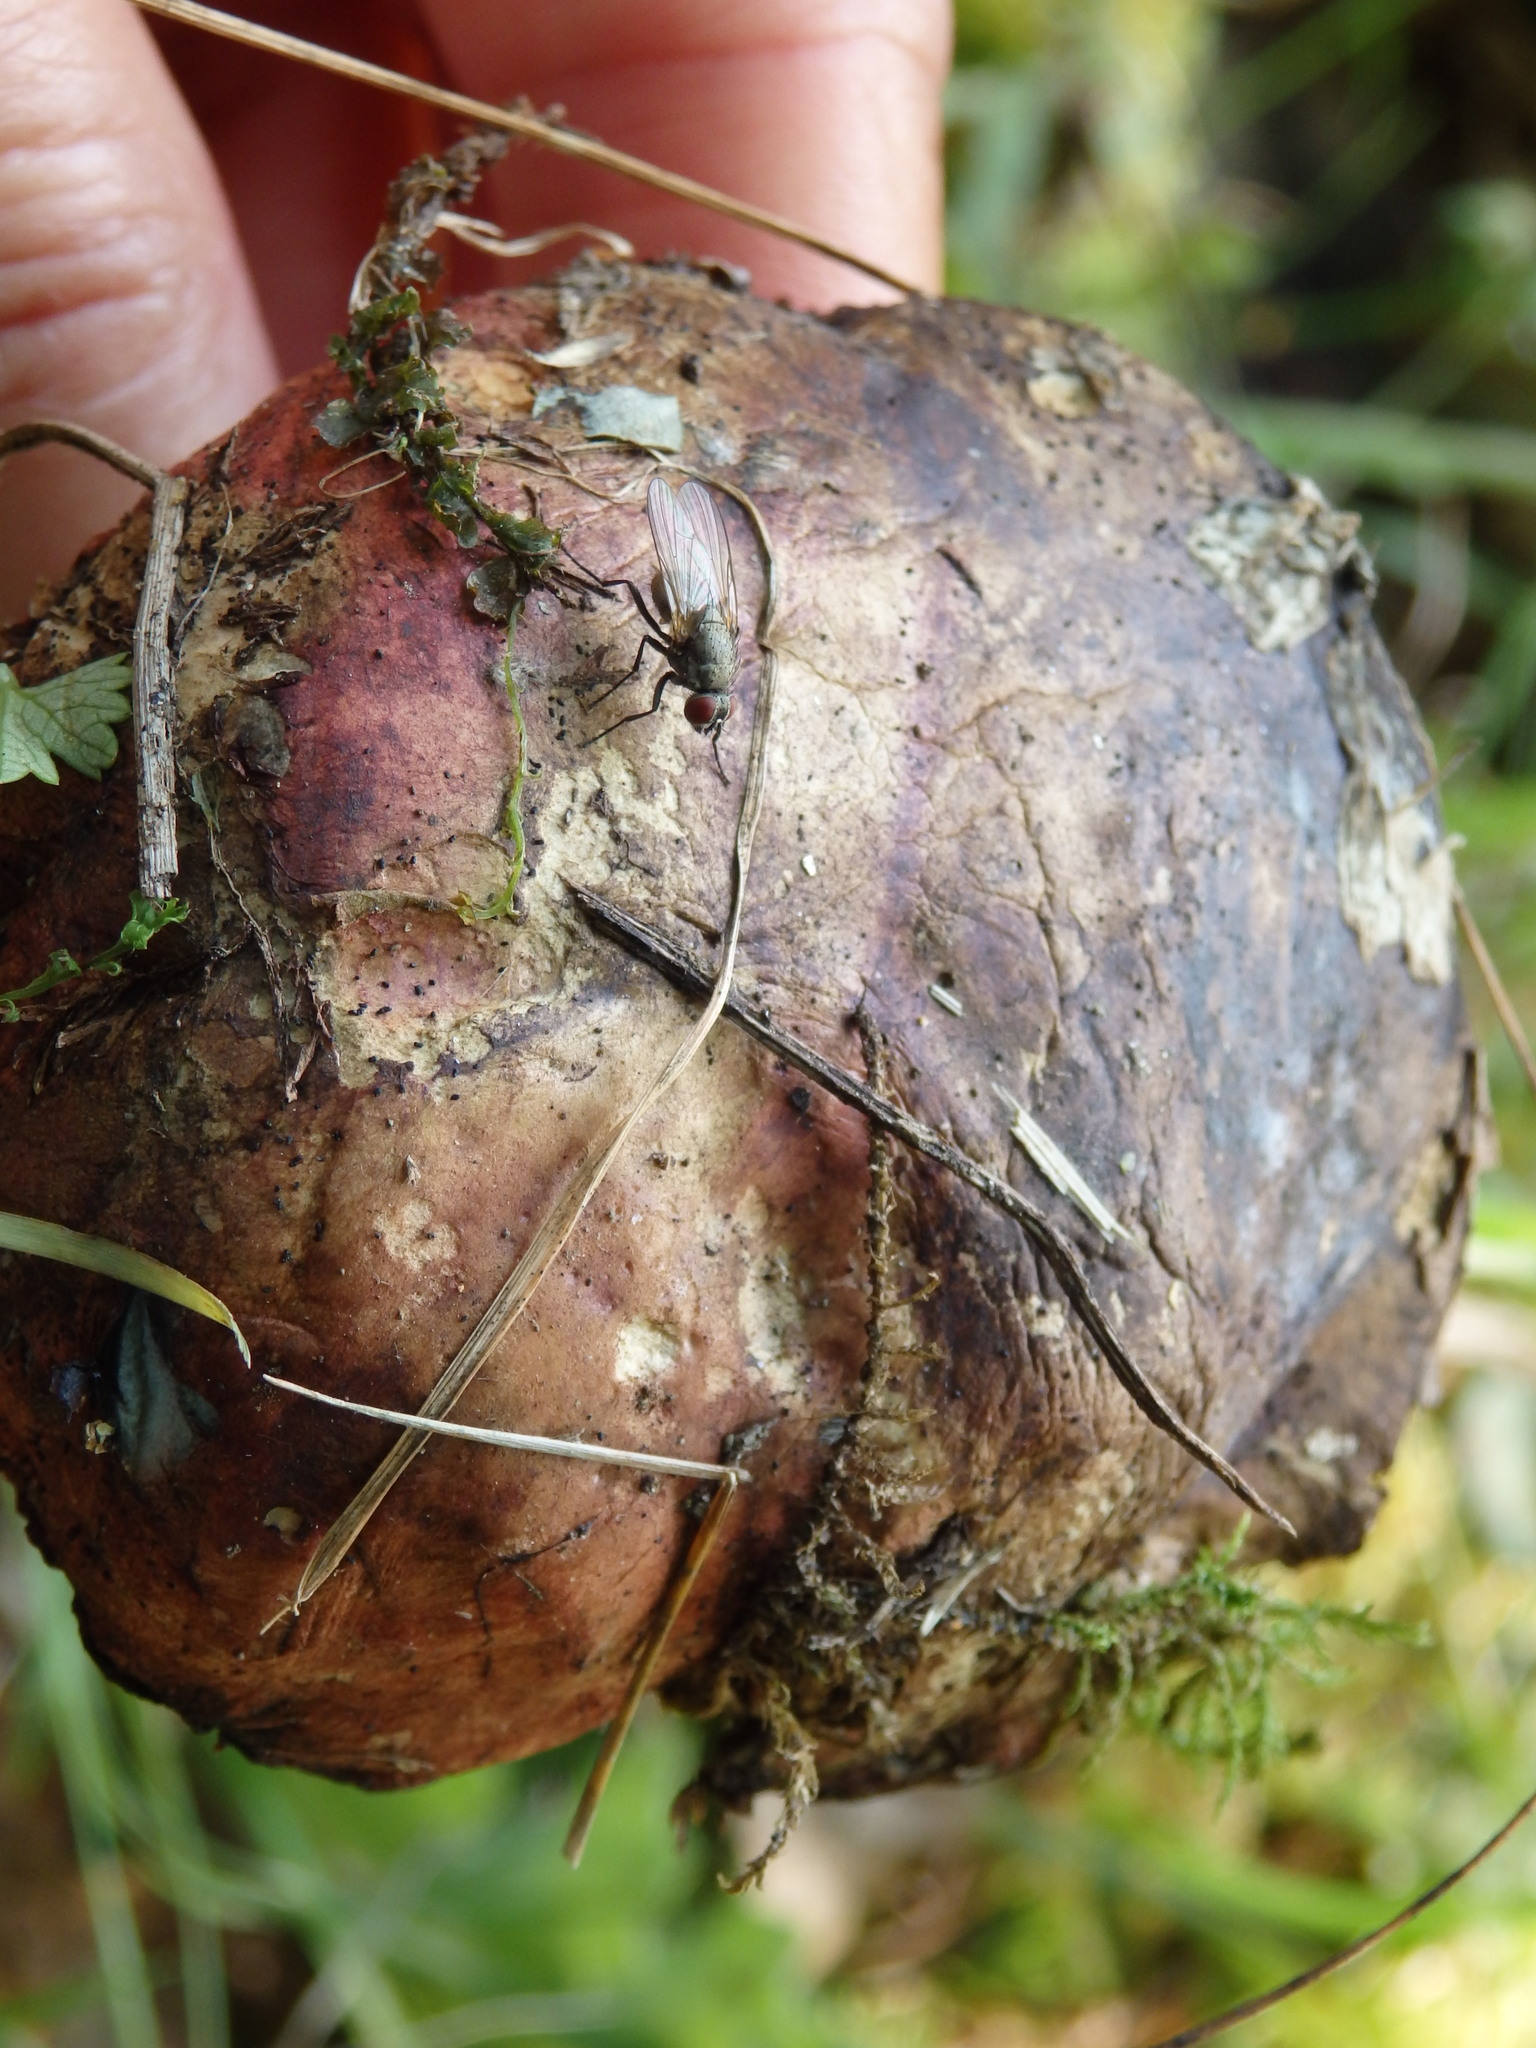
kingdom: Fungi
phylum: Basidiomycota
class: Agaricomycetes
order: Boletales
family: Boletaceae
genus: Xerocomellus
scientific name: Xerocomellus chrysenteron
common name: Red-cracking bolete
